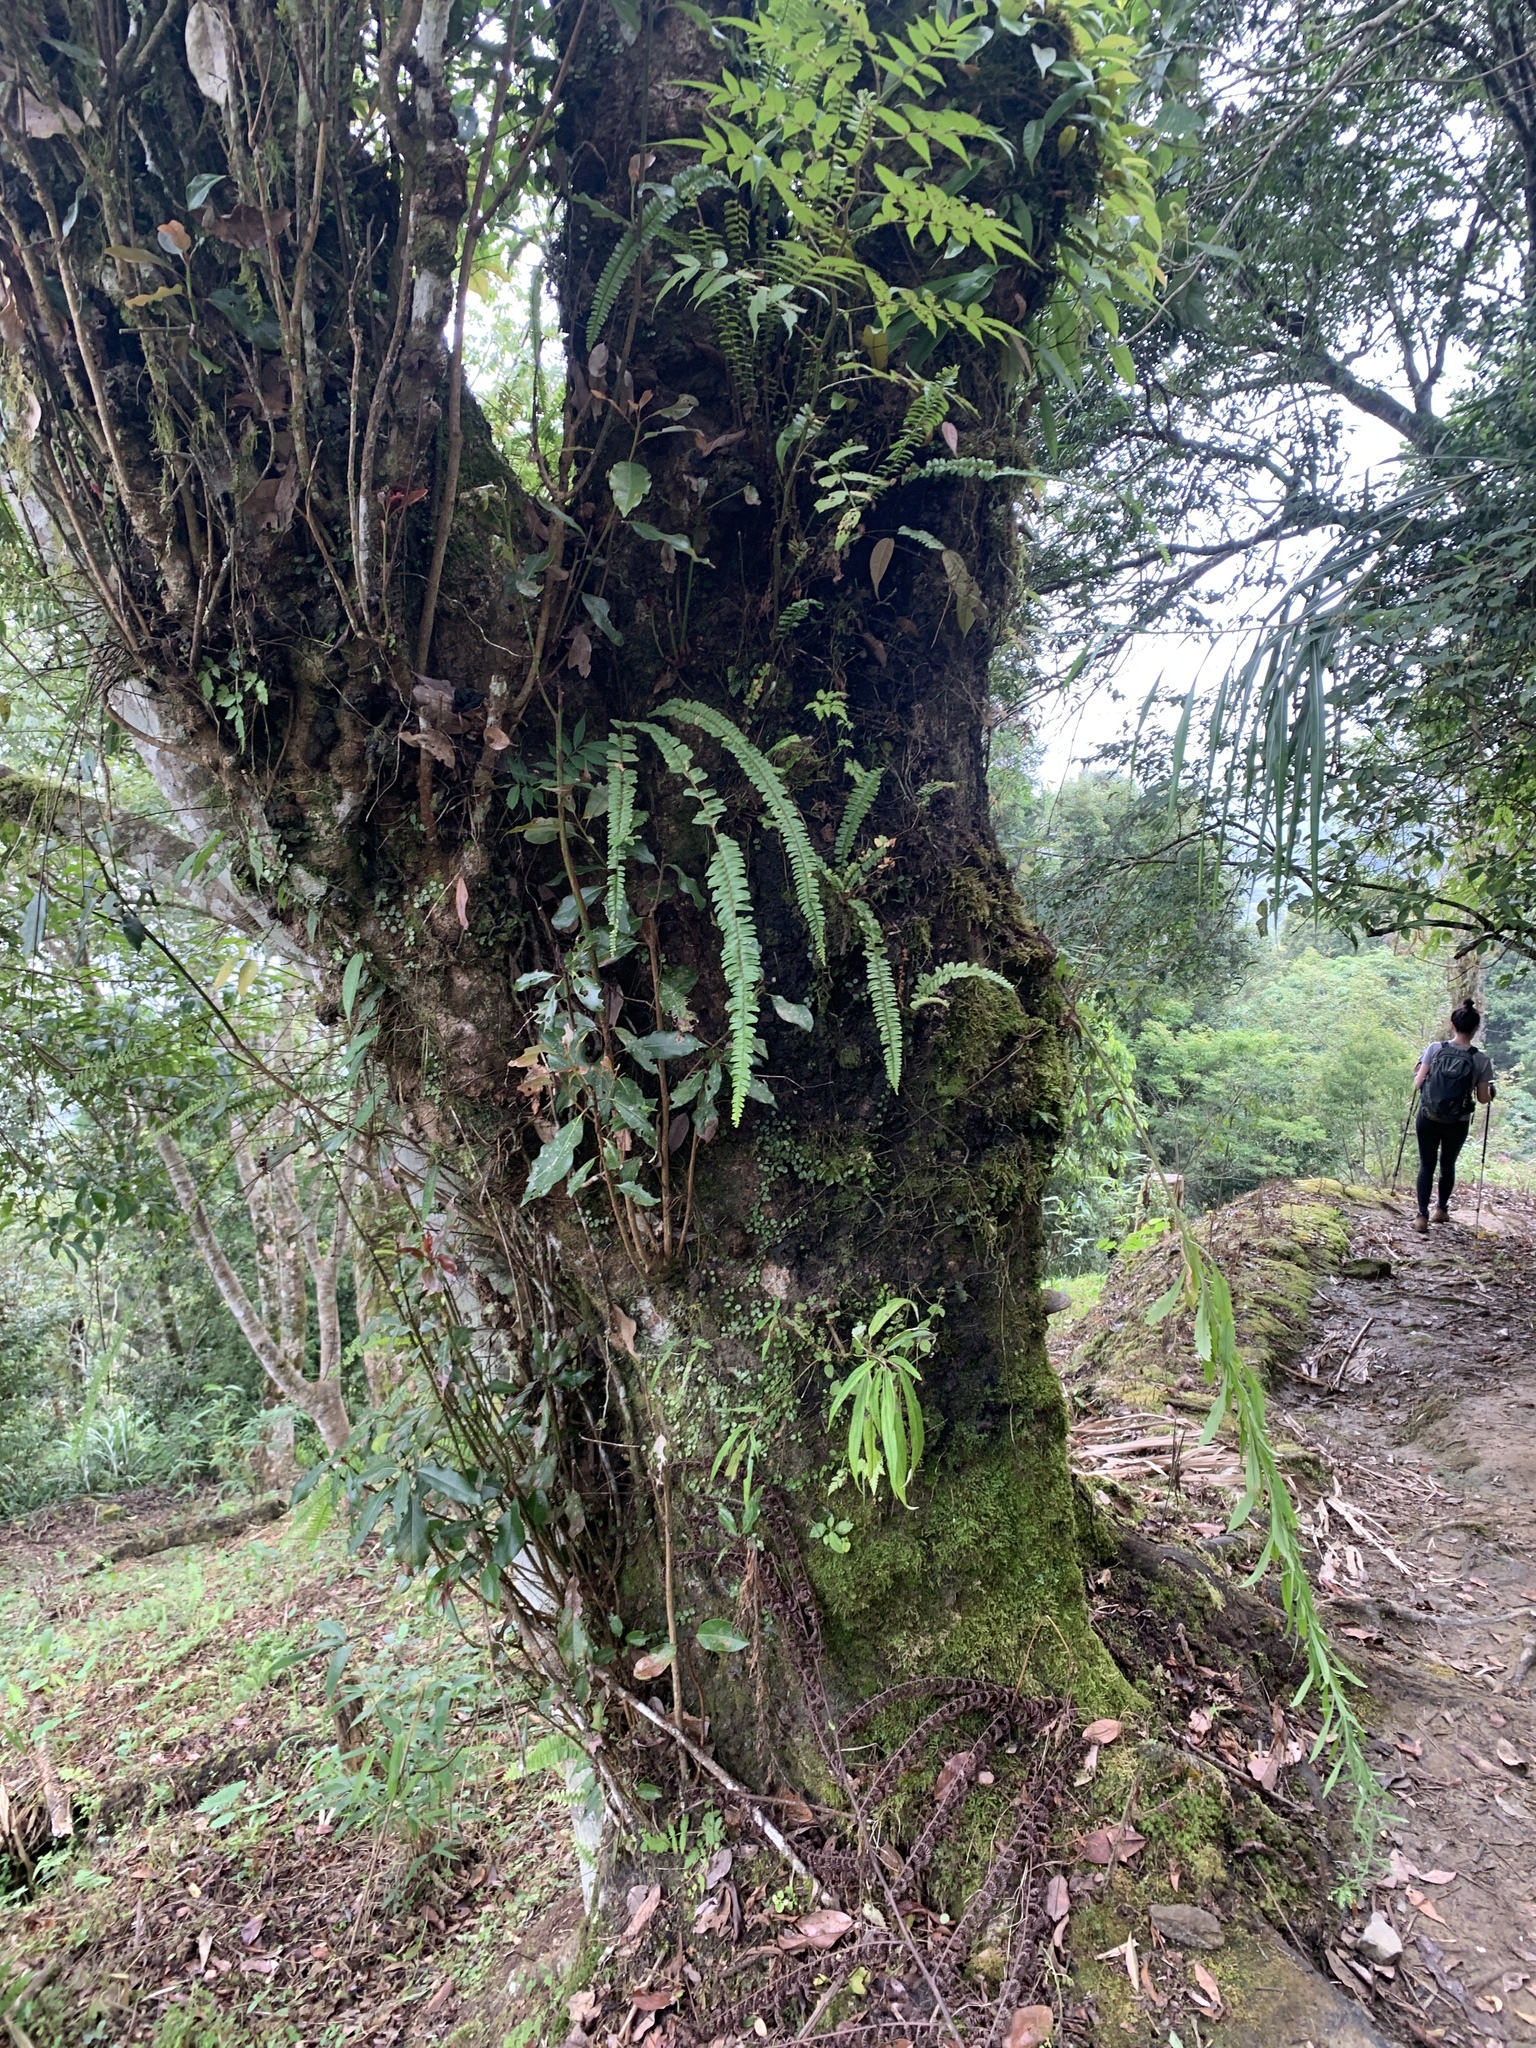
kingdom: Plantae
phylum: Tracheophyta
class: Magnoliopsida
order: Laurales
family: Lauraceae
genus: Machilus
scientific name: Machilus thunbergii
